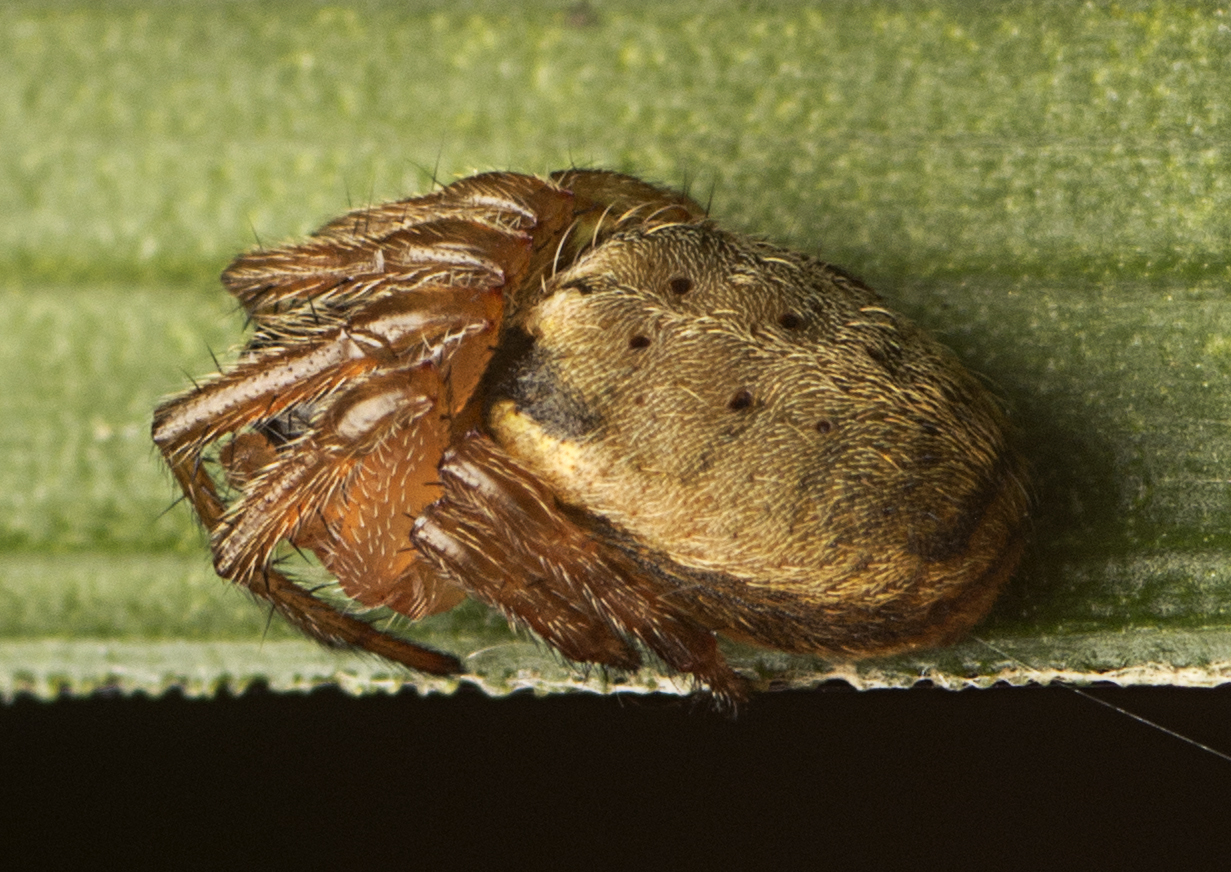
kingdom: Animalia
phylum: Arthropoda
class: Arachnida
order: Araneae
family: Araneidae
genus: Leviana
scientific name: Leviana folium
